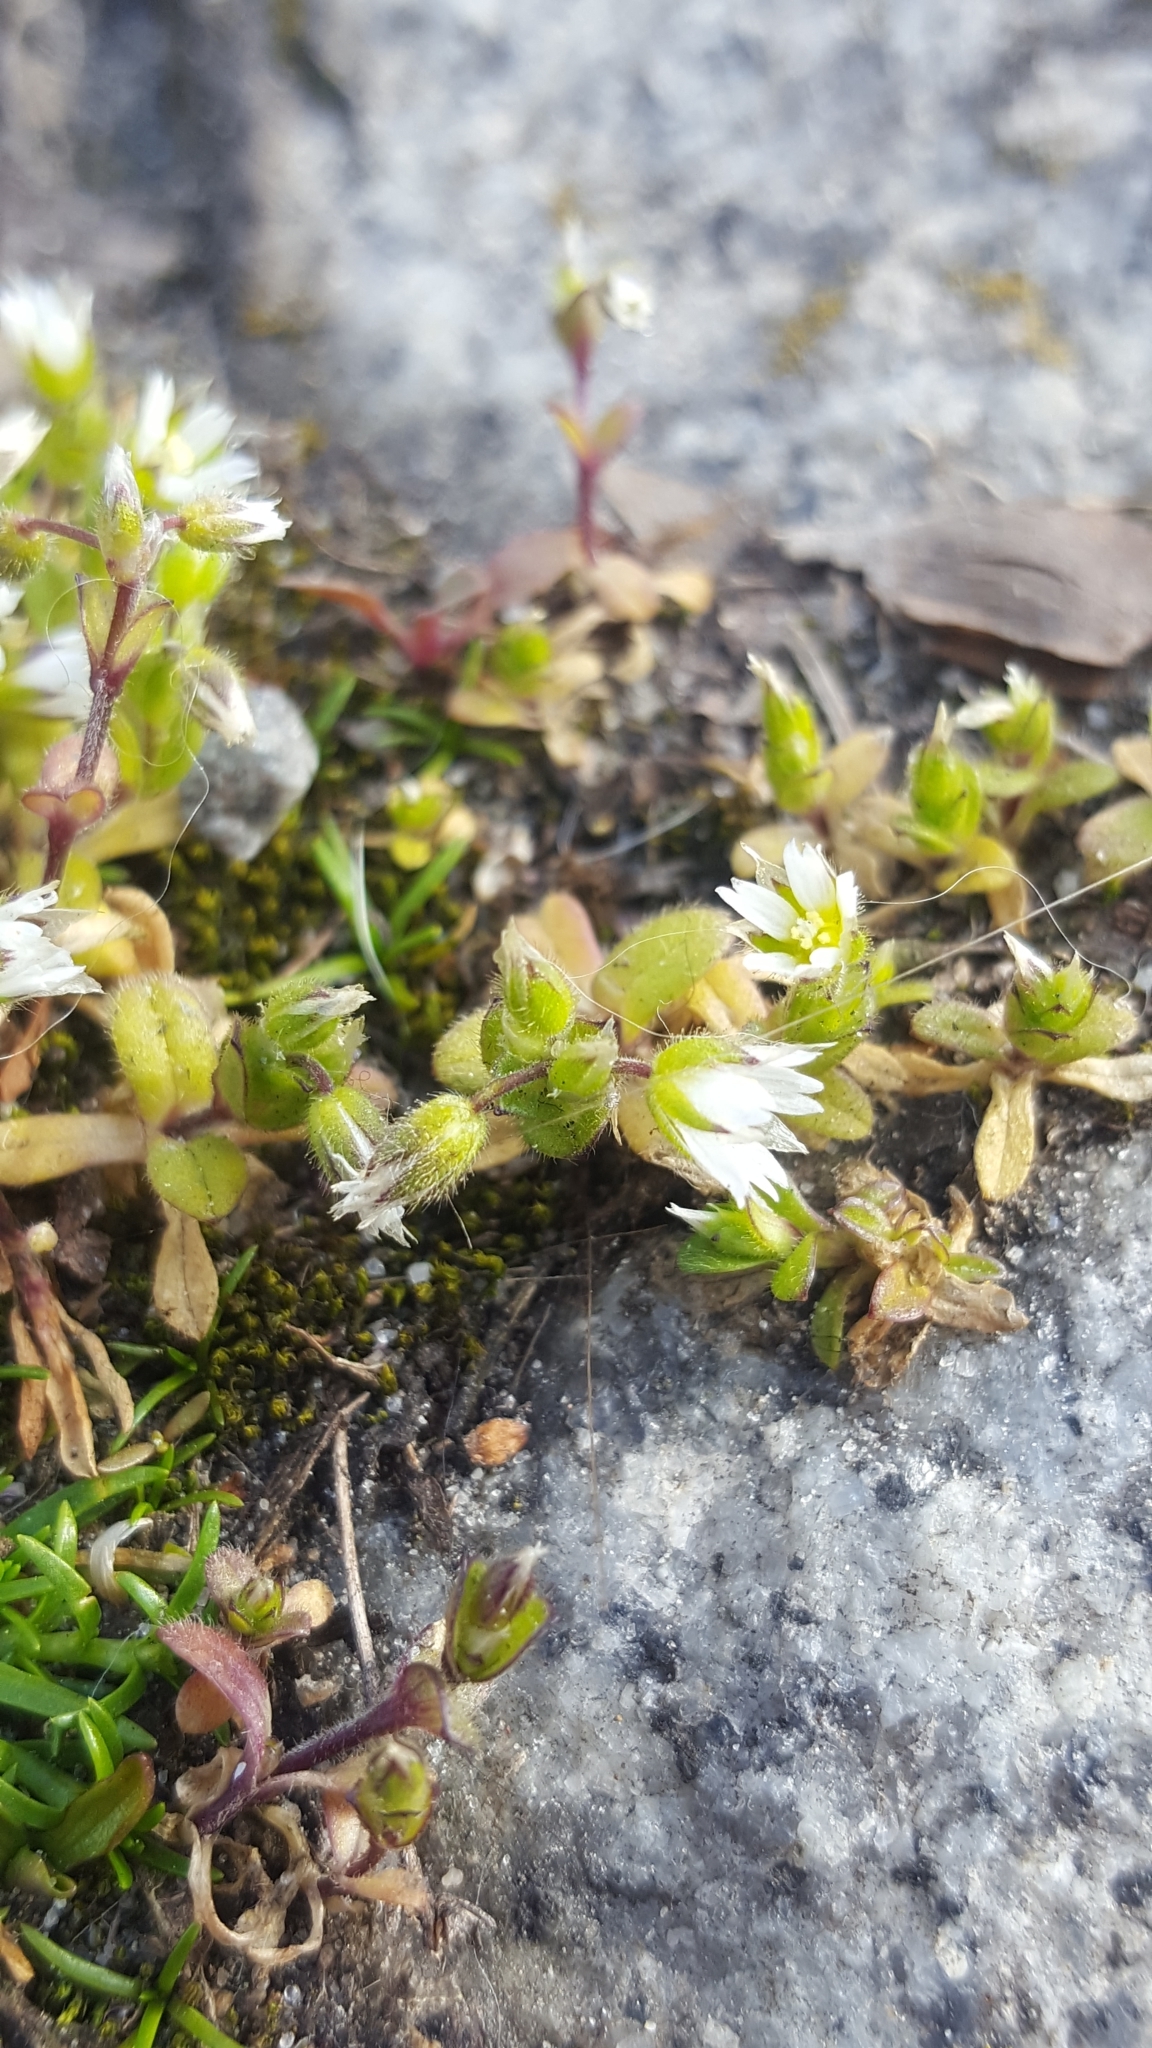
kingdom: Plantae
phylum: Tracheophyta
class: Magnoliopsida
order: Caryophyllales
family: Caryophyllaceae
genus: Cerastium
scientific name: Cerastium semidecandrum
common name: Little mouse-ear
